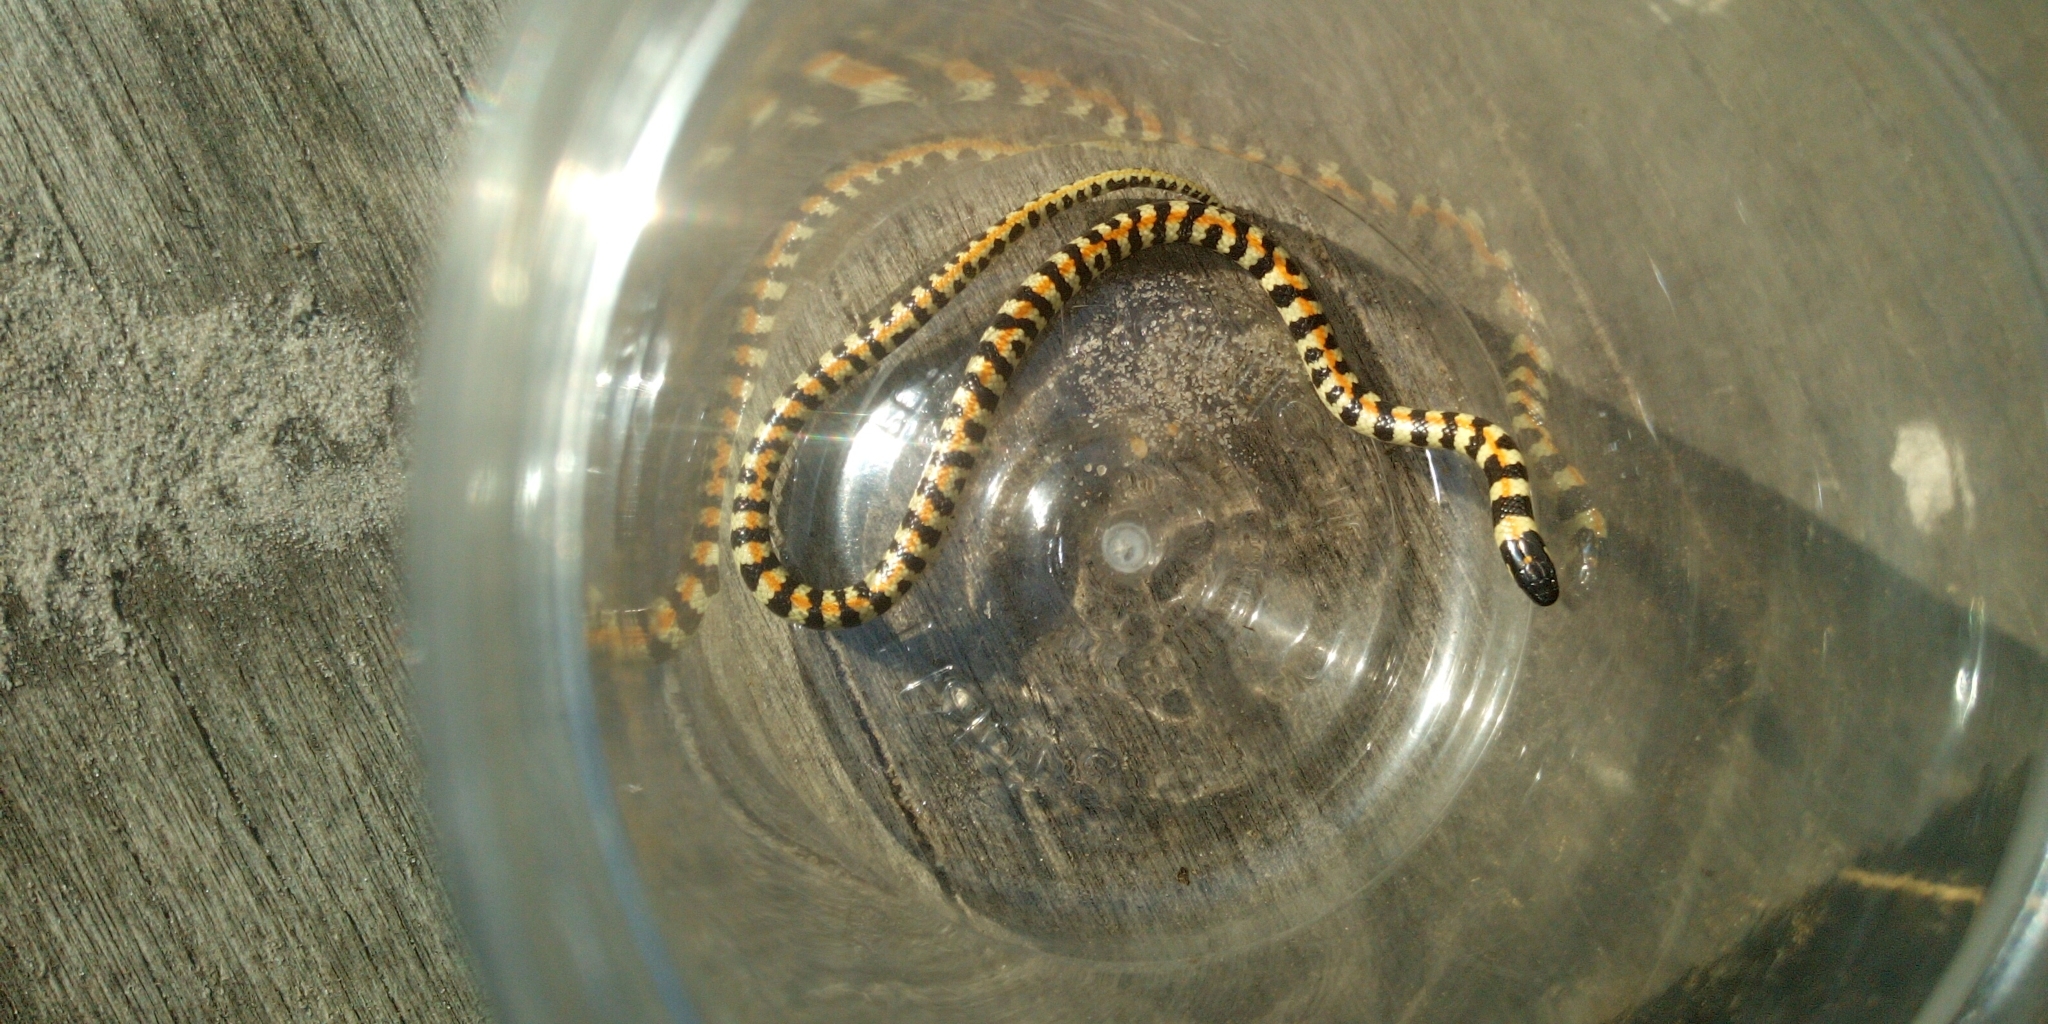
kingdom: Animalia
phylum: Chordata
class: Squamata
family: Atractaspididae
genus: Homoroselaps
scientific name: Homoroselaps lacteus
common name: Spotted harlequin snake
